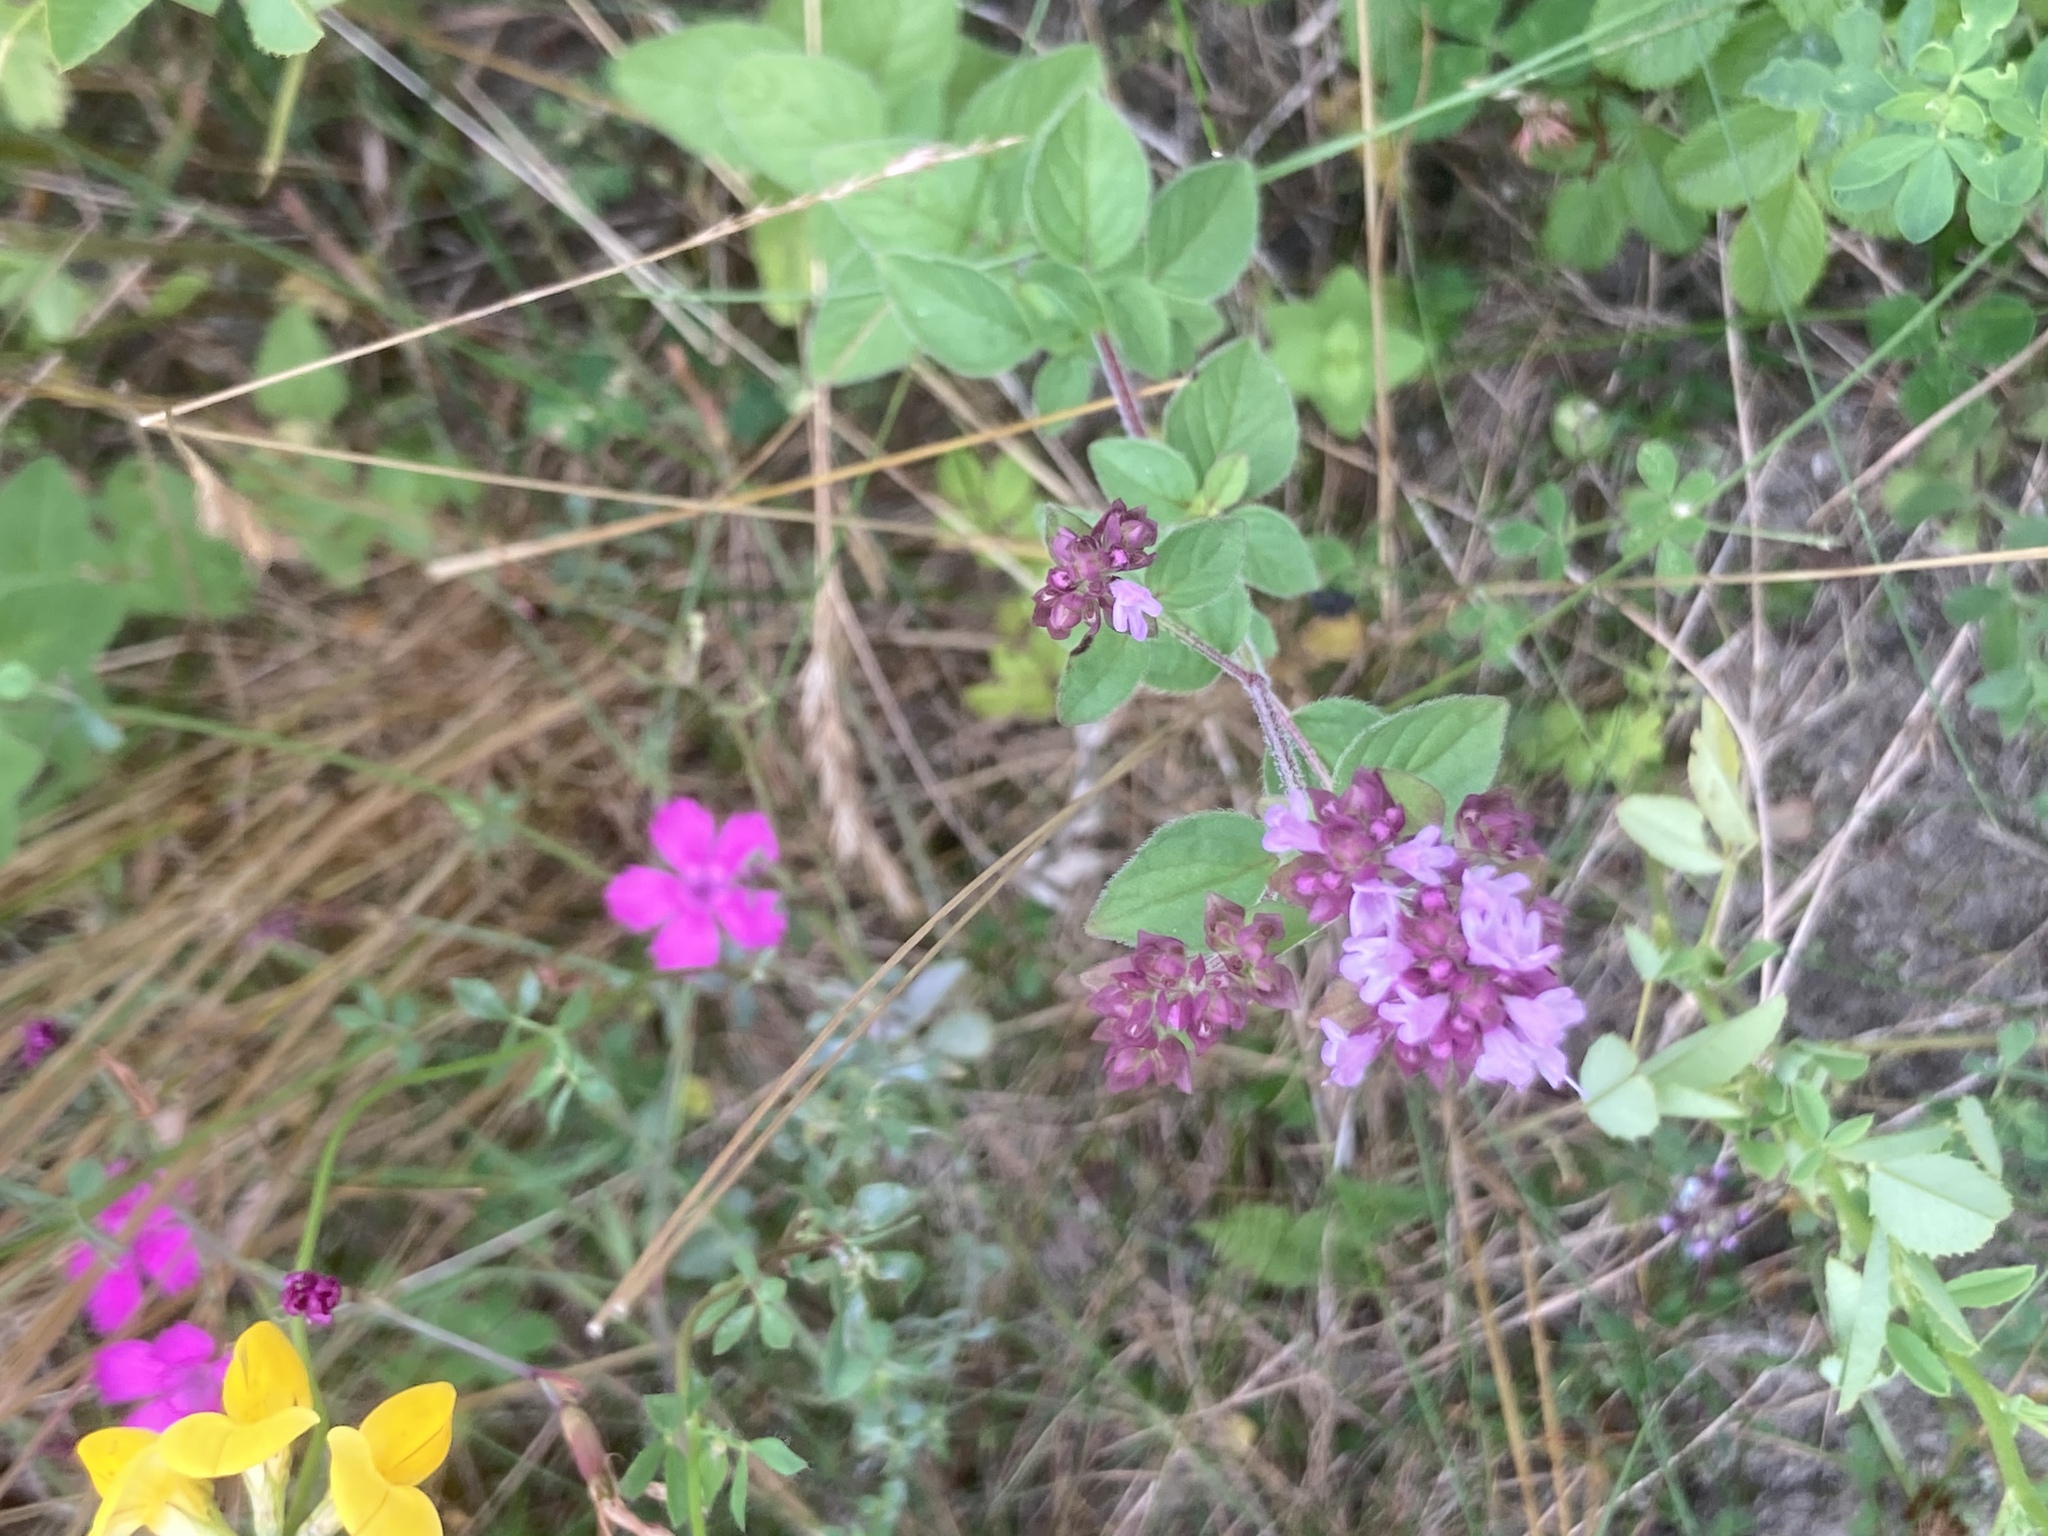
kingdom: Plantae
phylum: Tracheophyta
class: Magnoliopsida
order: Caryophyllales
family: Caryophyllaceae
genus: Dianthus
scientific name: Dianthus deltoides
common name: Maiden pink
